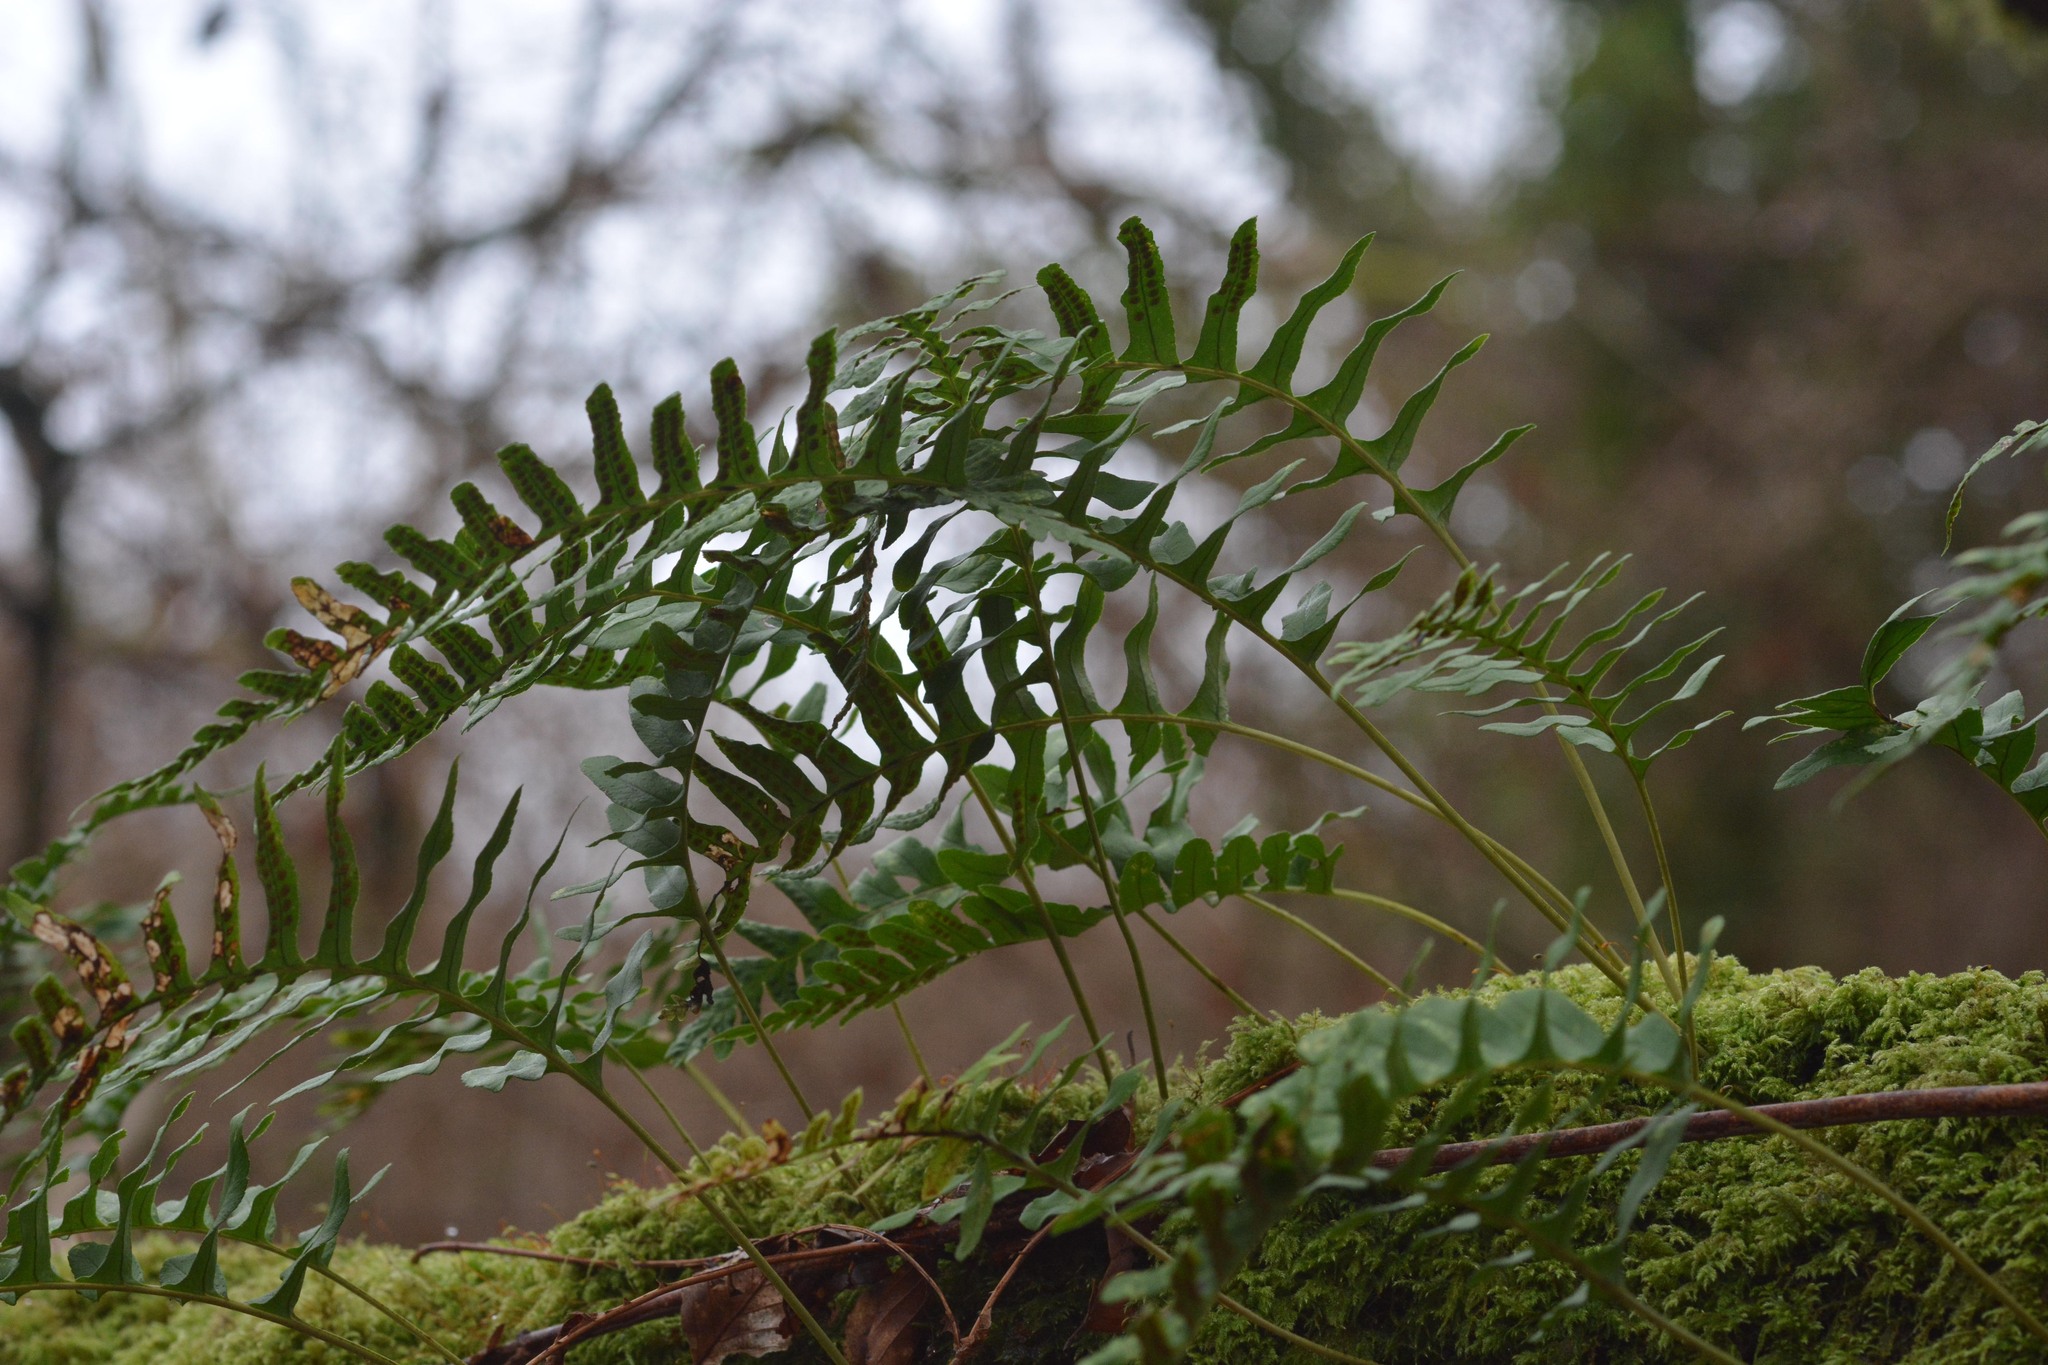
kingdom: Plantae
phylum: Tracheophyta
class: Polypodiopsida
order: Polypodiales
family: Polypodiaceae
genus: Polypodium
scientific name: Polypodium vulgare
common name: Common polypody
